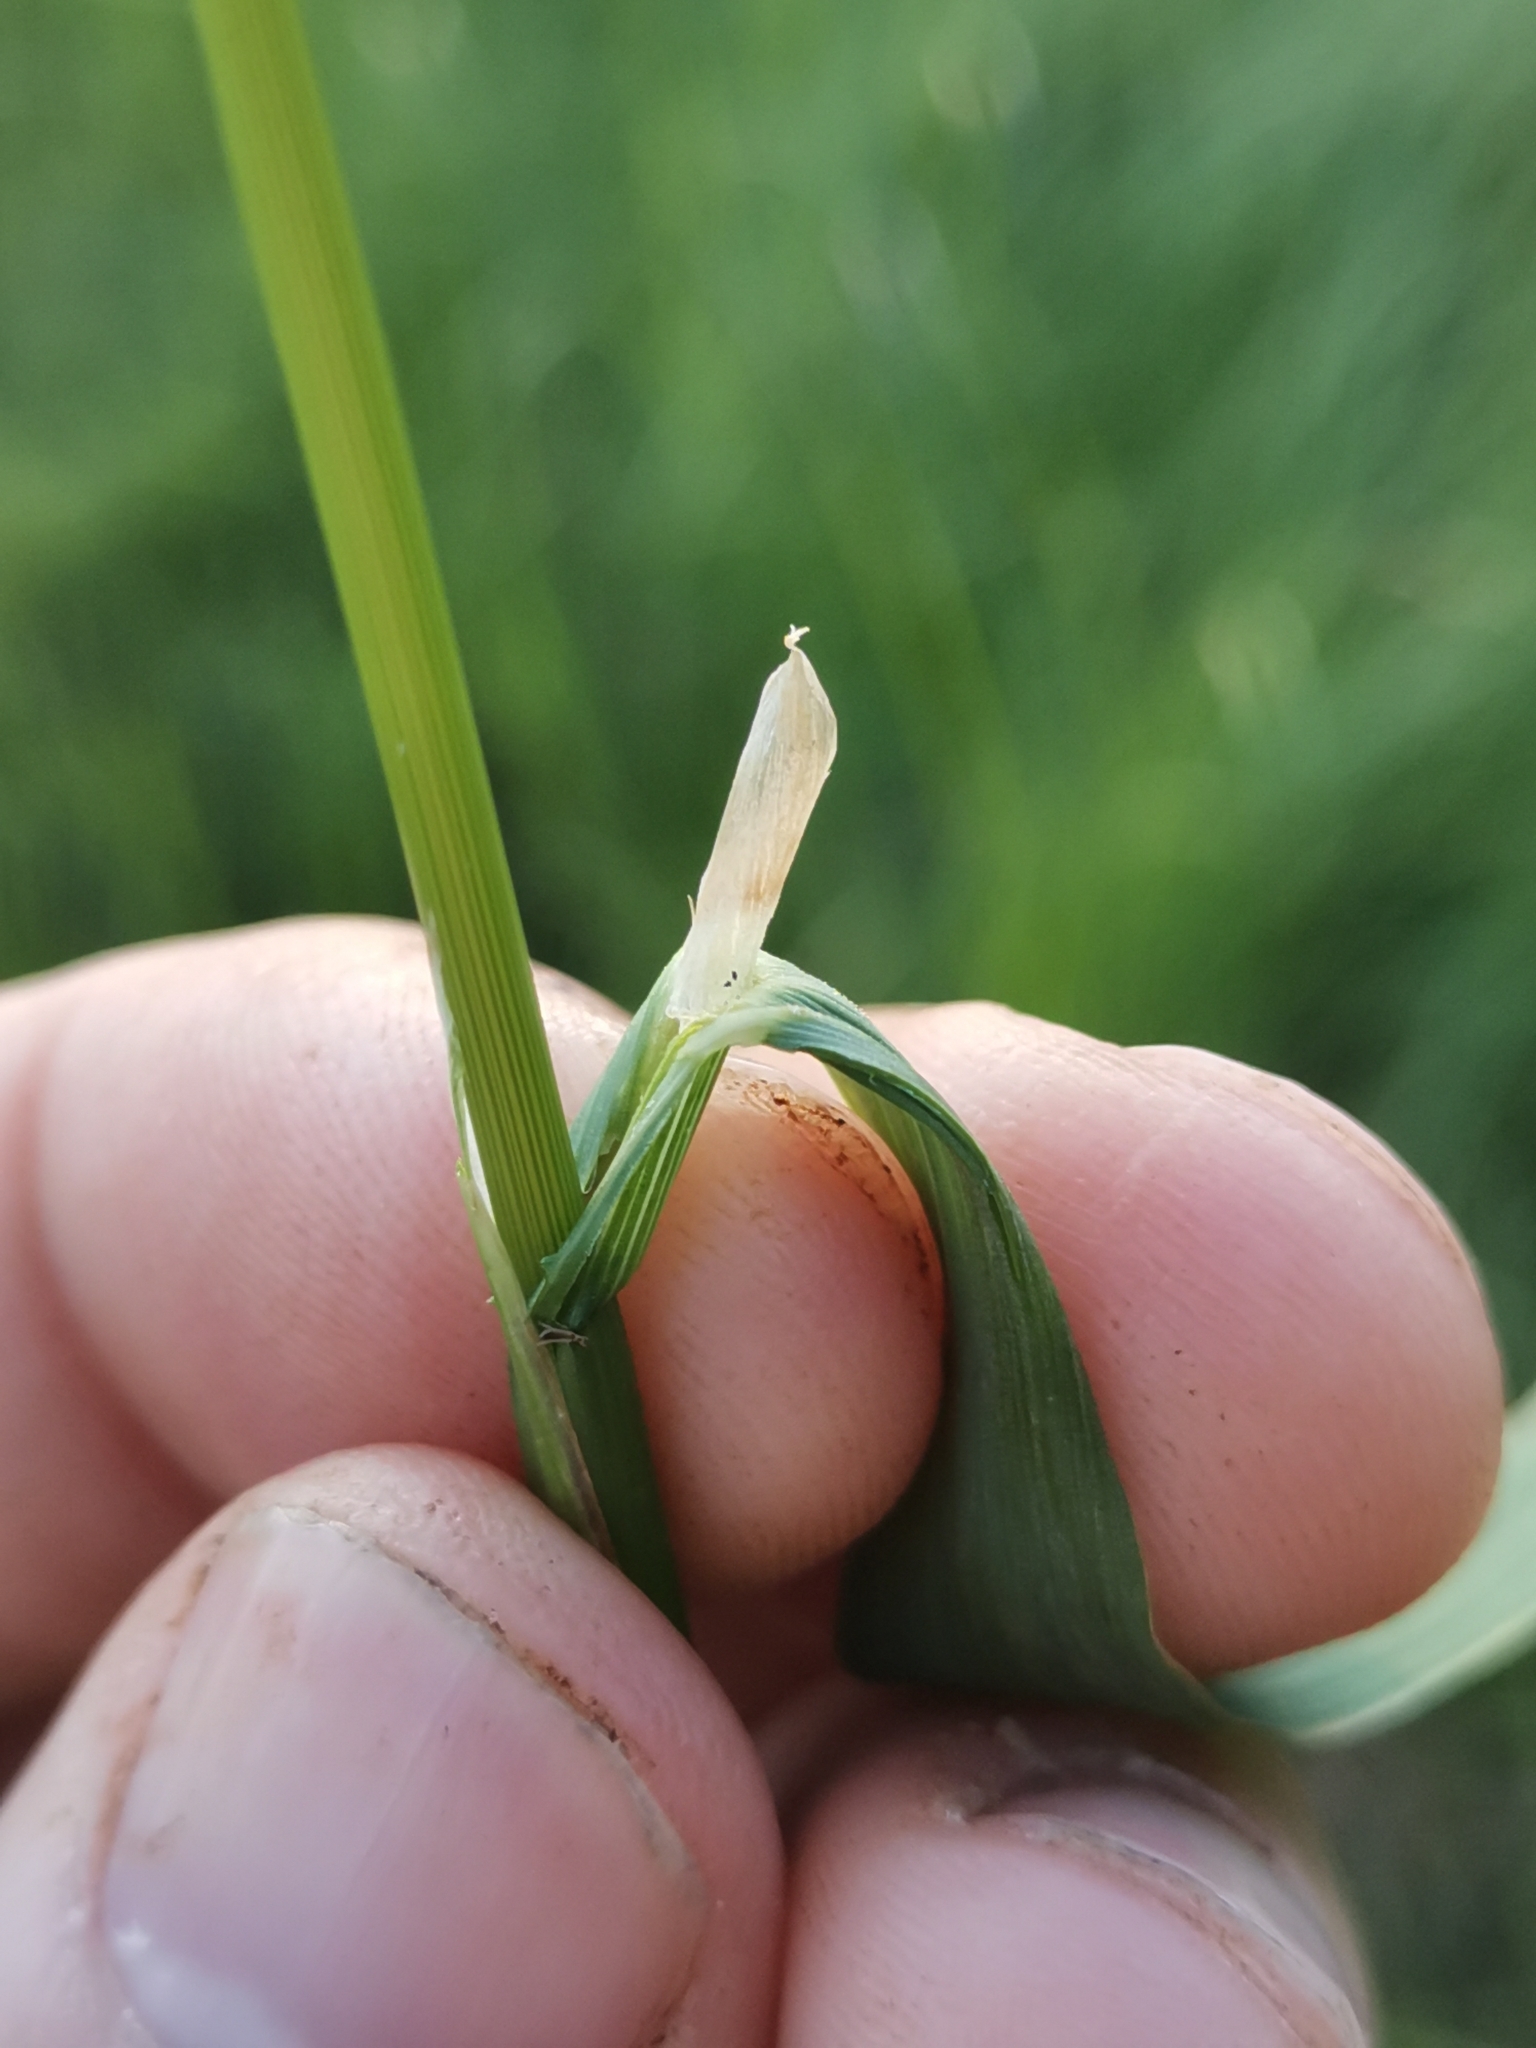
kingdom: Plantae
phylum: Tracheophyta
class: Liliopsida
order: Poales
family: Poaceae
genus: Alopecurus
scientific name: Alopecurus geniculatus
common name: Water foxtail
